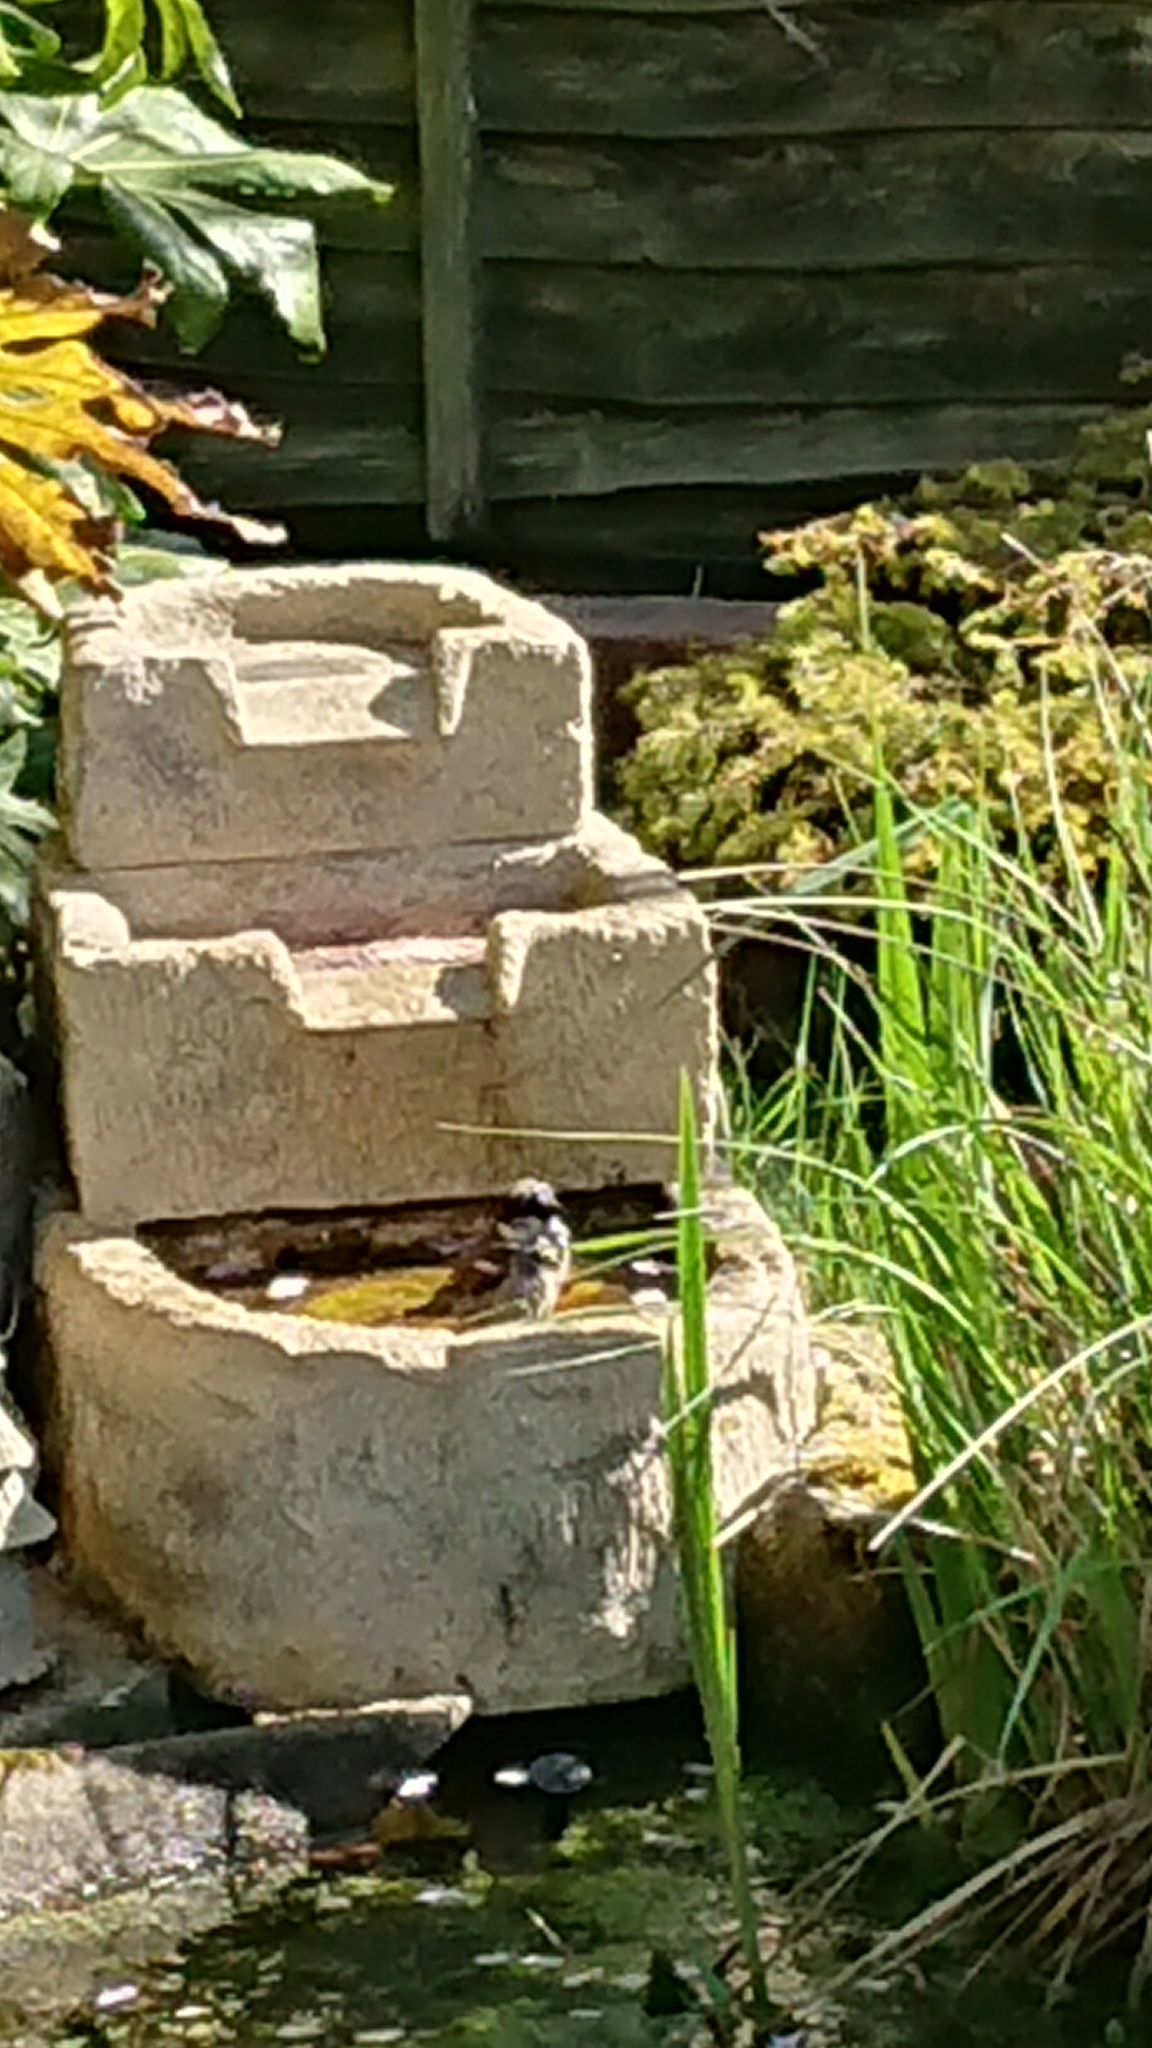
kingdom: Animalia
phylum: Chordata
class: Aves
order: Passeriformes
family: Passeridae
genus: Passer
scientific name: Passer domesticus
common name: House sparrow
